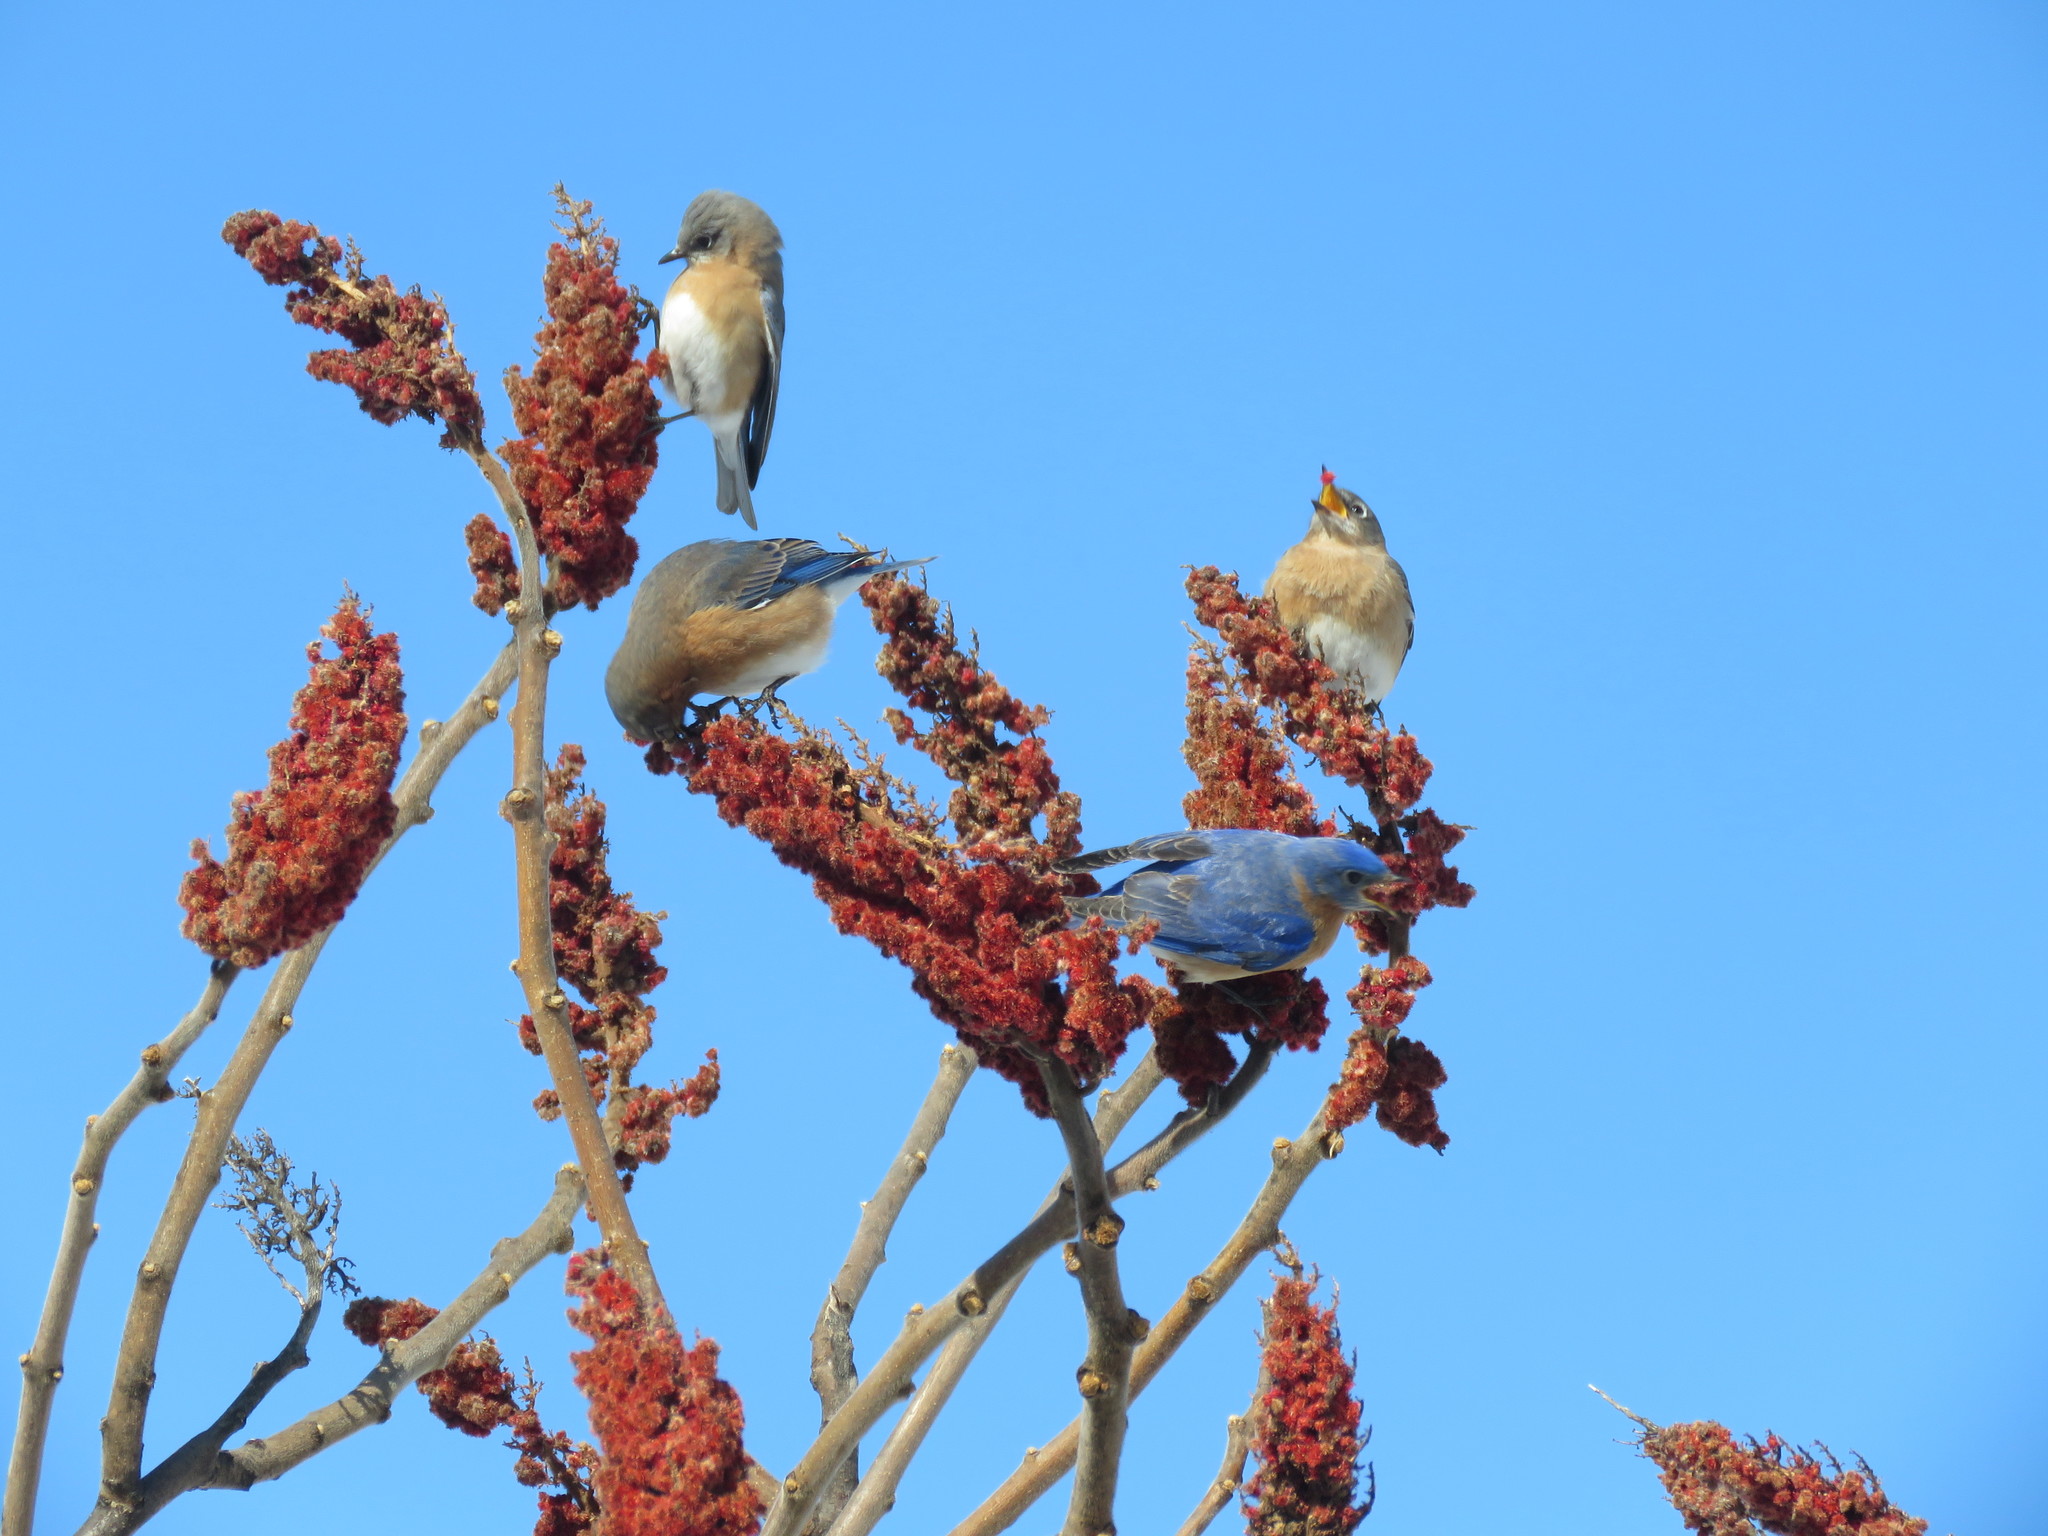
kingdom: Animalia
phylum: Chordata
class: Aves
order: Passeriformes
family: Turdidae
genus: Sialia
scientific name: Sialia sialis
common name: Eastern bluebird
